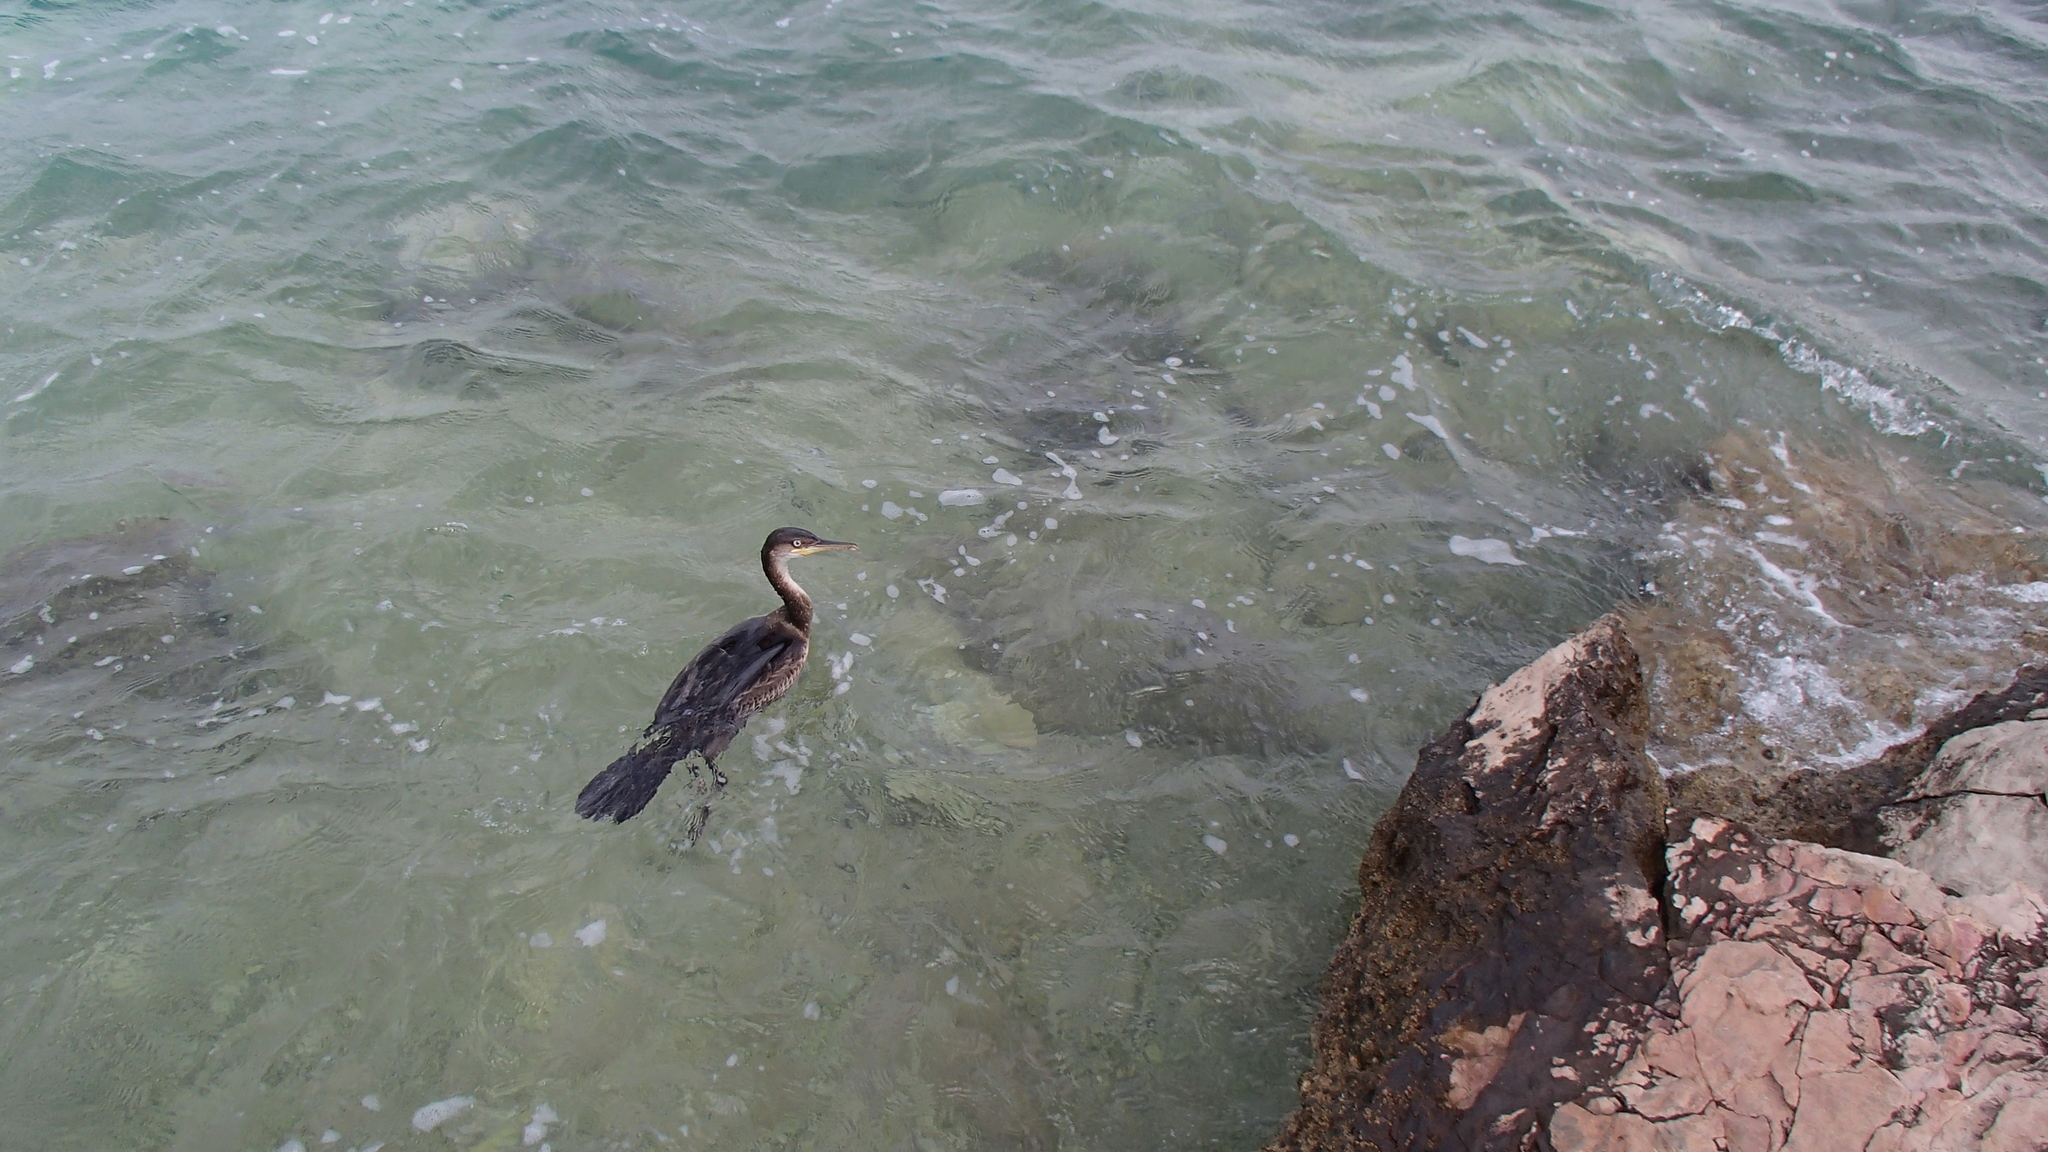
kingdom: Animalia
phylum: Chordata
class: Aves
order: Suliformes
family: Phalacrocoracidae
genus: Phalacrocorax
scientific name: Phalacrocorax aristotelis
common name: European shag
